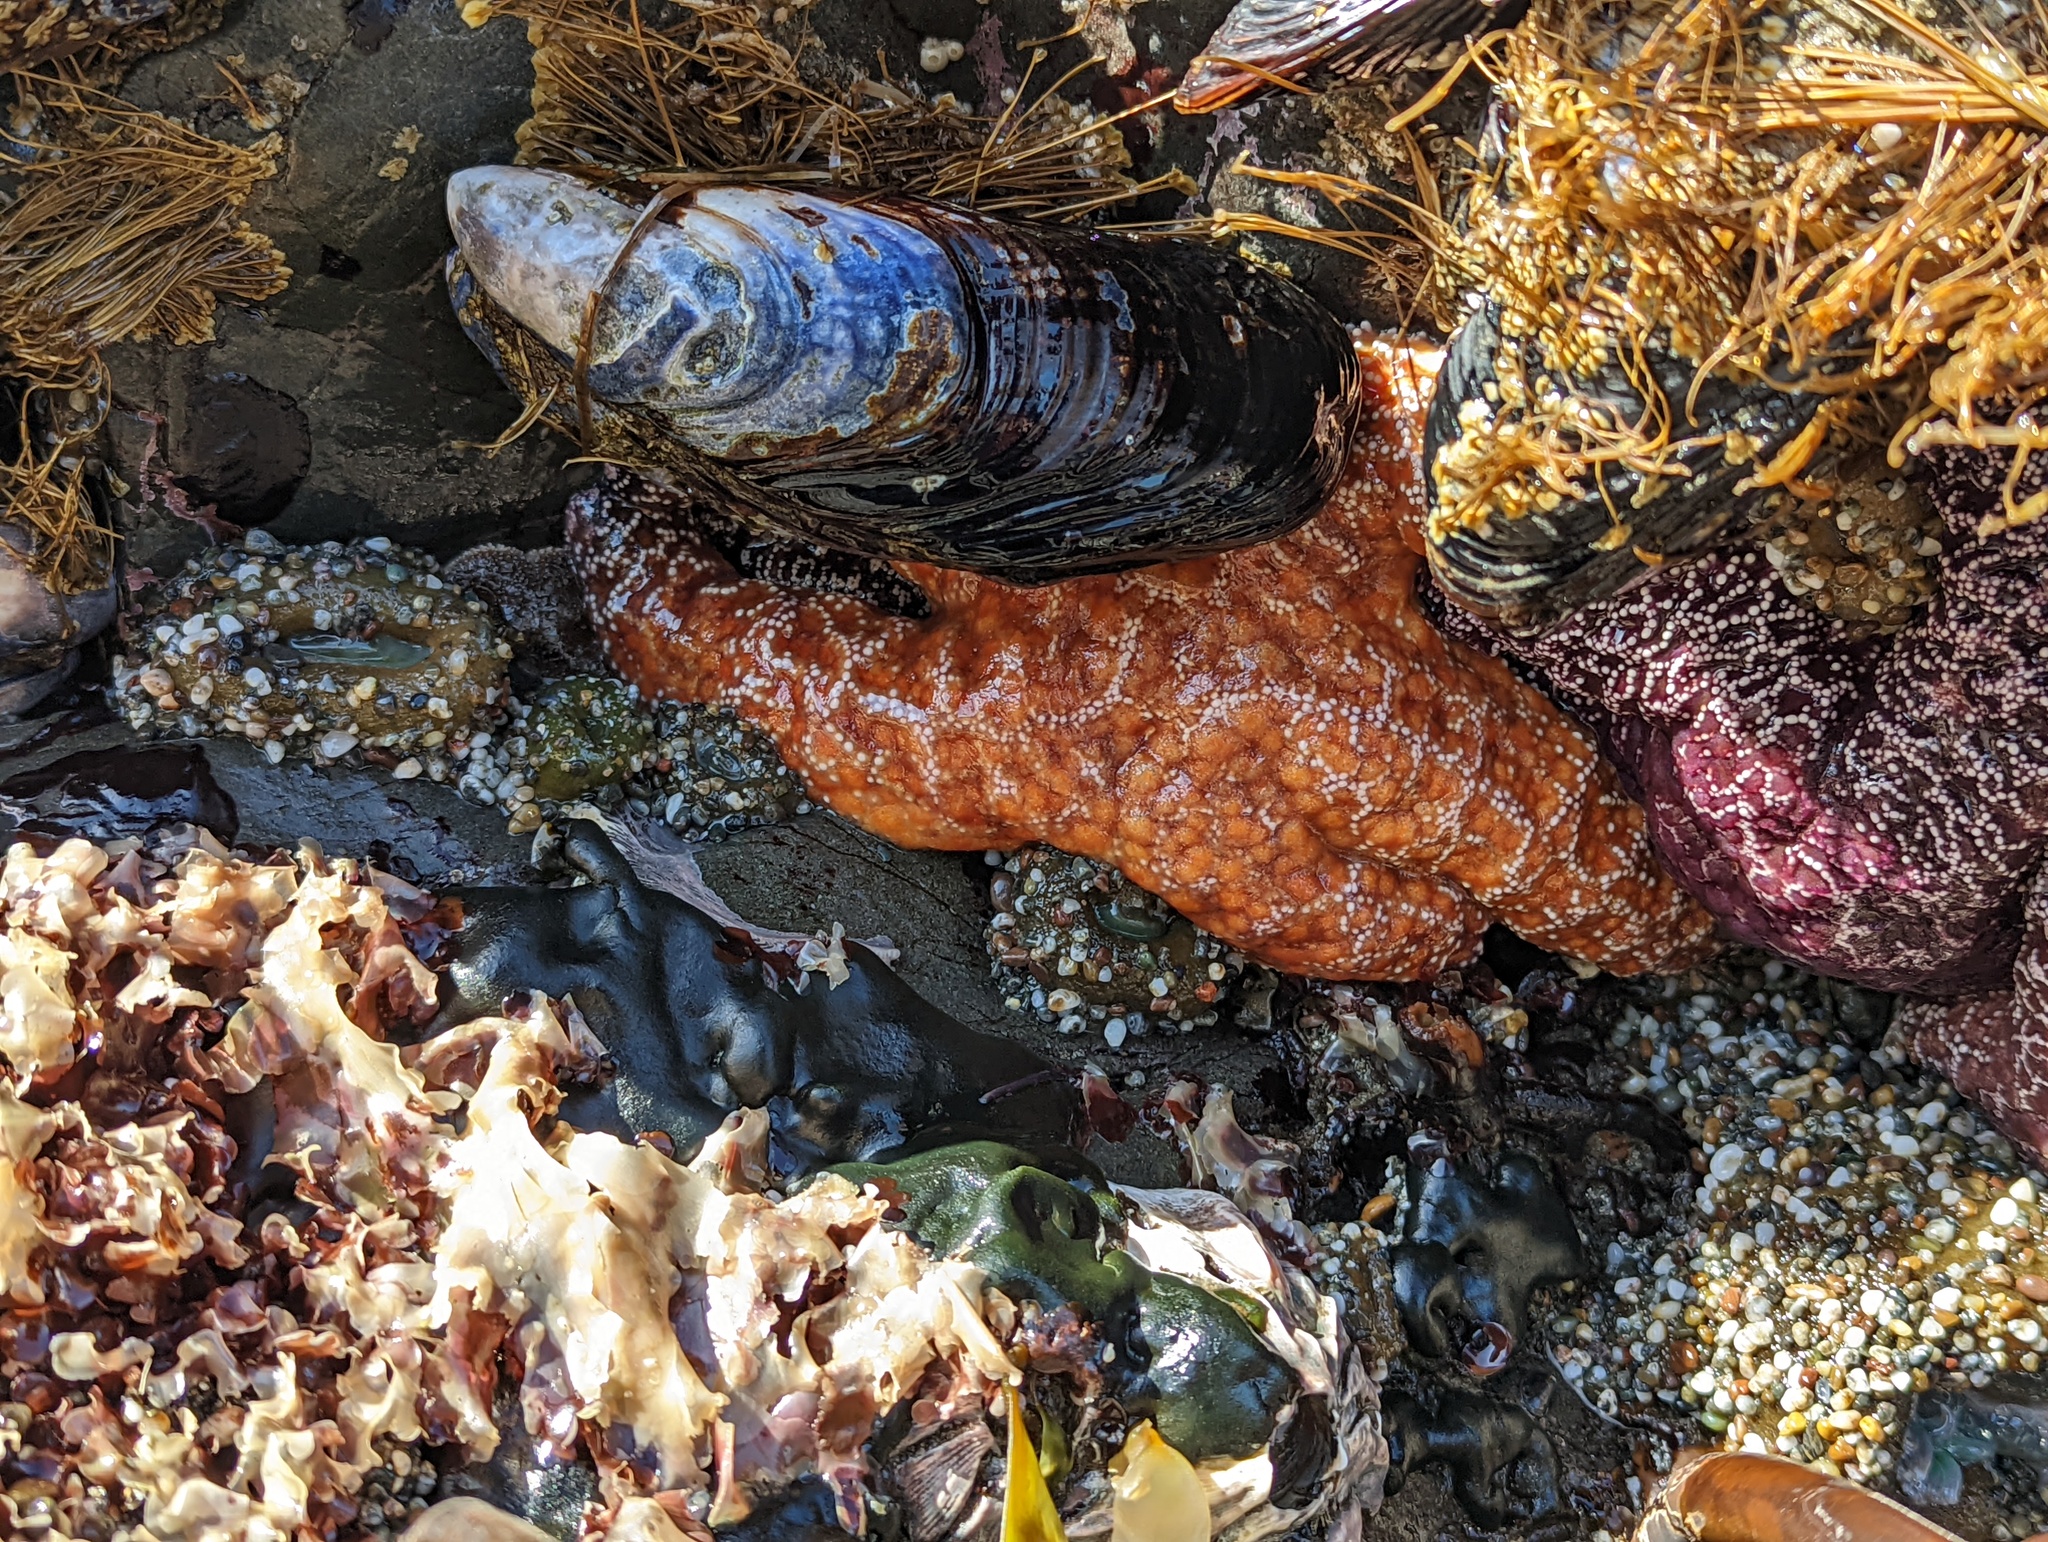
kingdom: Animalia
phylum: Echinodermata
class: Asteroidea
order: Forcipulatida
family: Asteriidae
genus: Pisaster
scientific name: Pisaster ochraceus
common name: Ochre stars
